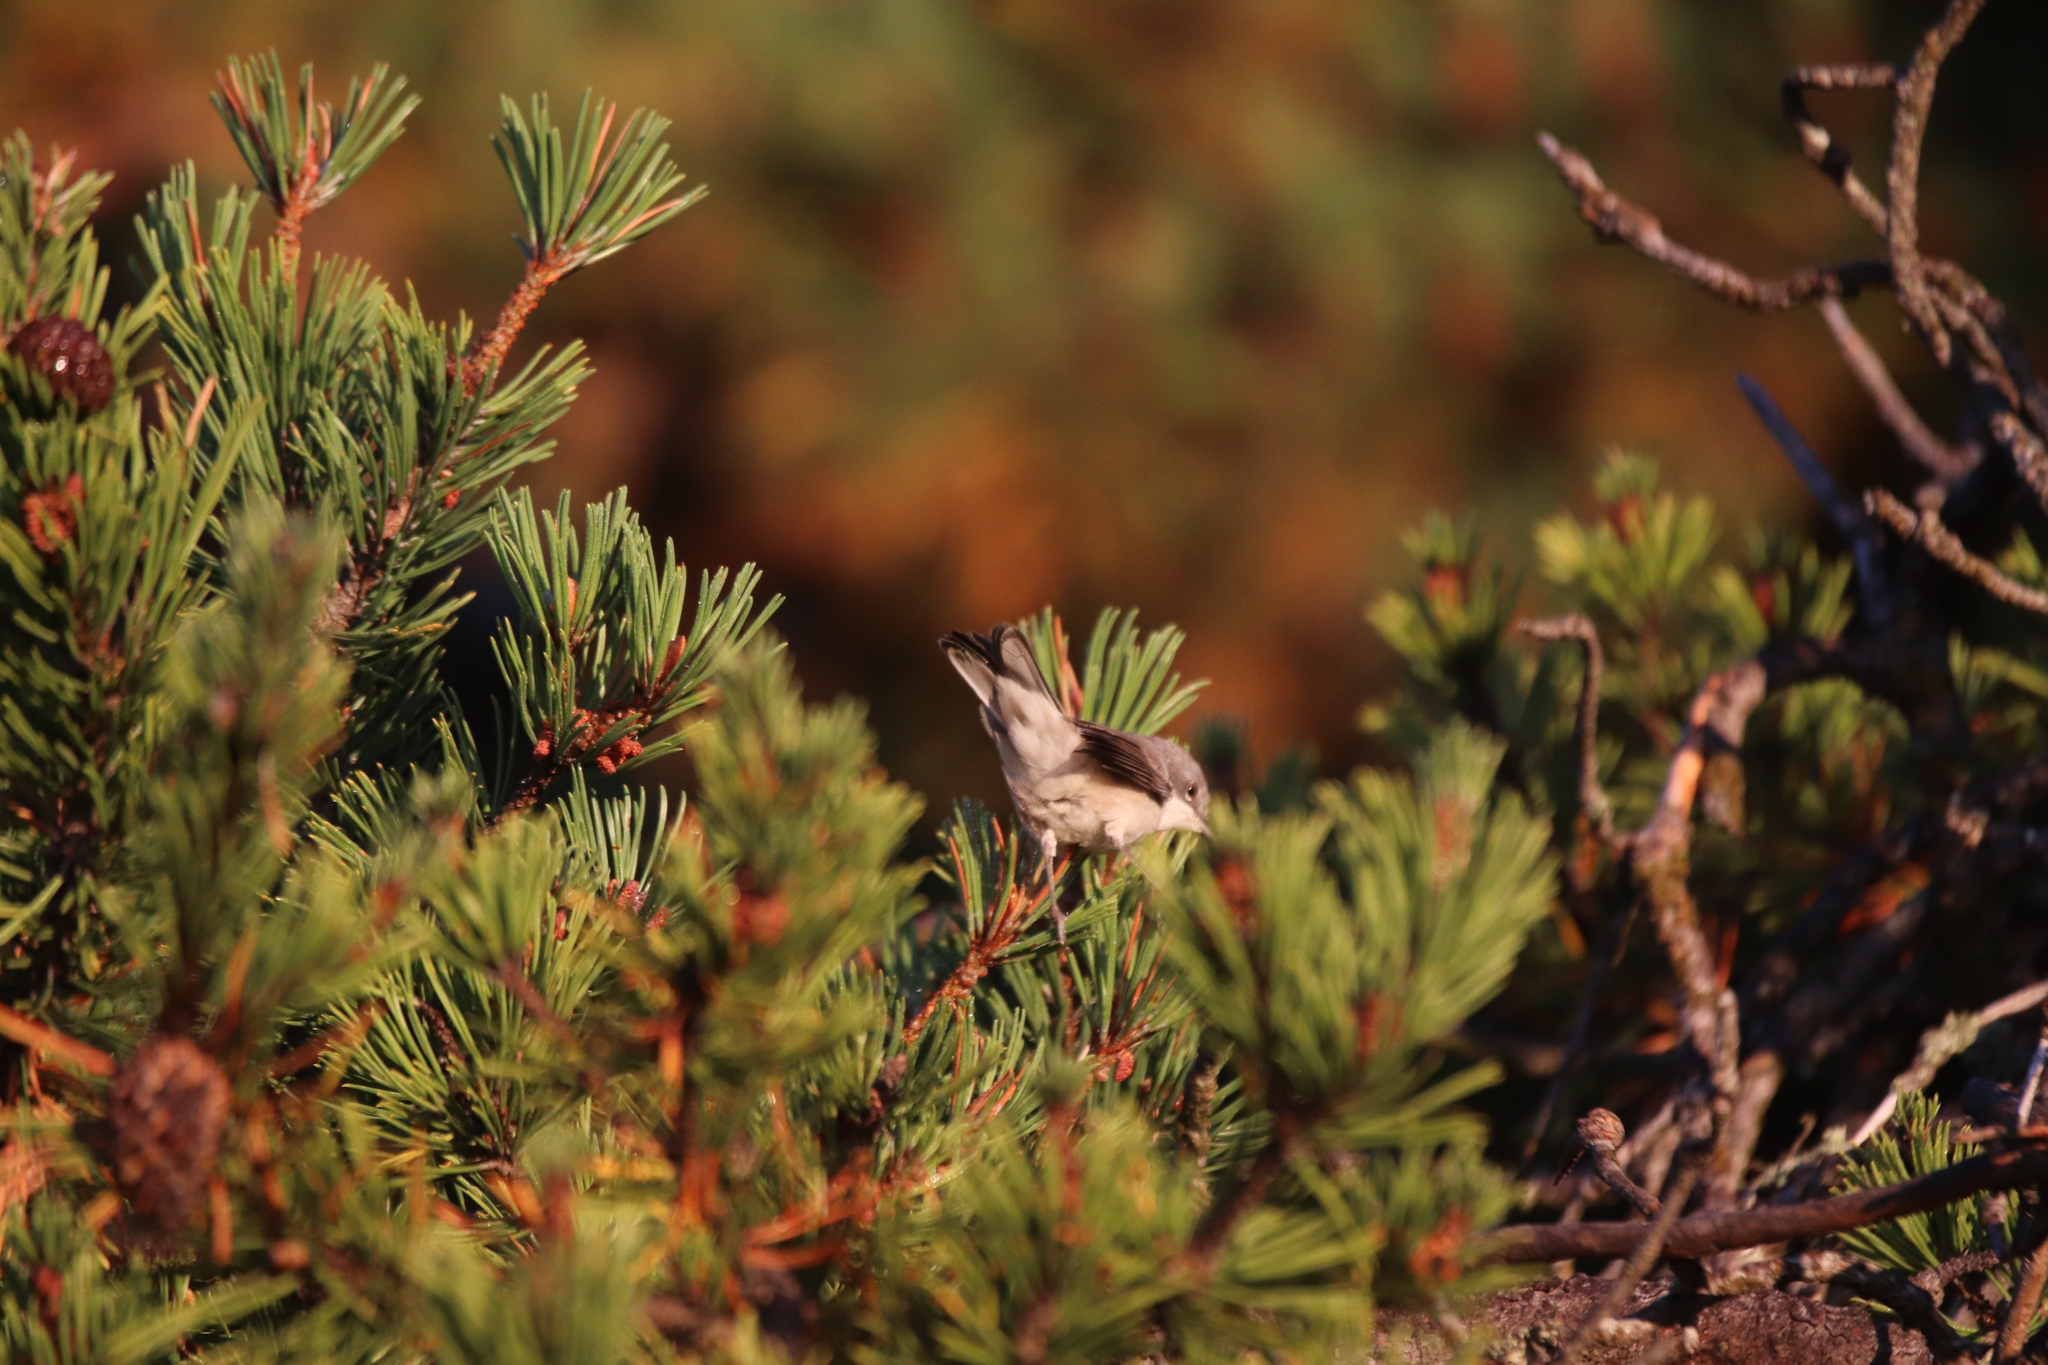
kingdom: Animalia
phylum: Chordata
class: Aves
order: Passeriformes
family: Sylviidae
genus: Sylvia
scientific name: Sylvia curruca
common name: Lesser whitethroat
